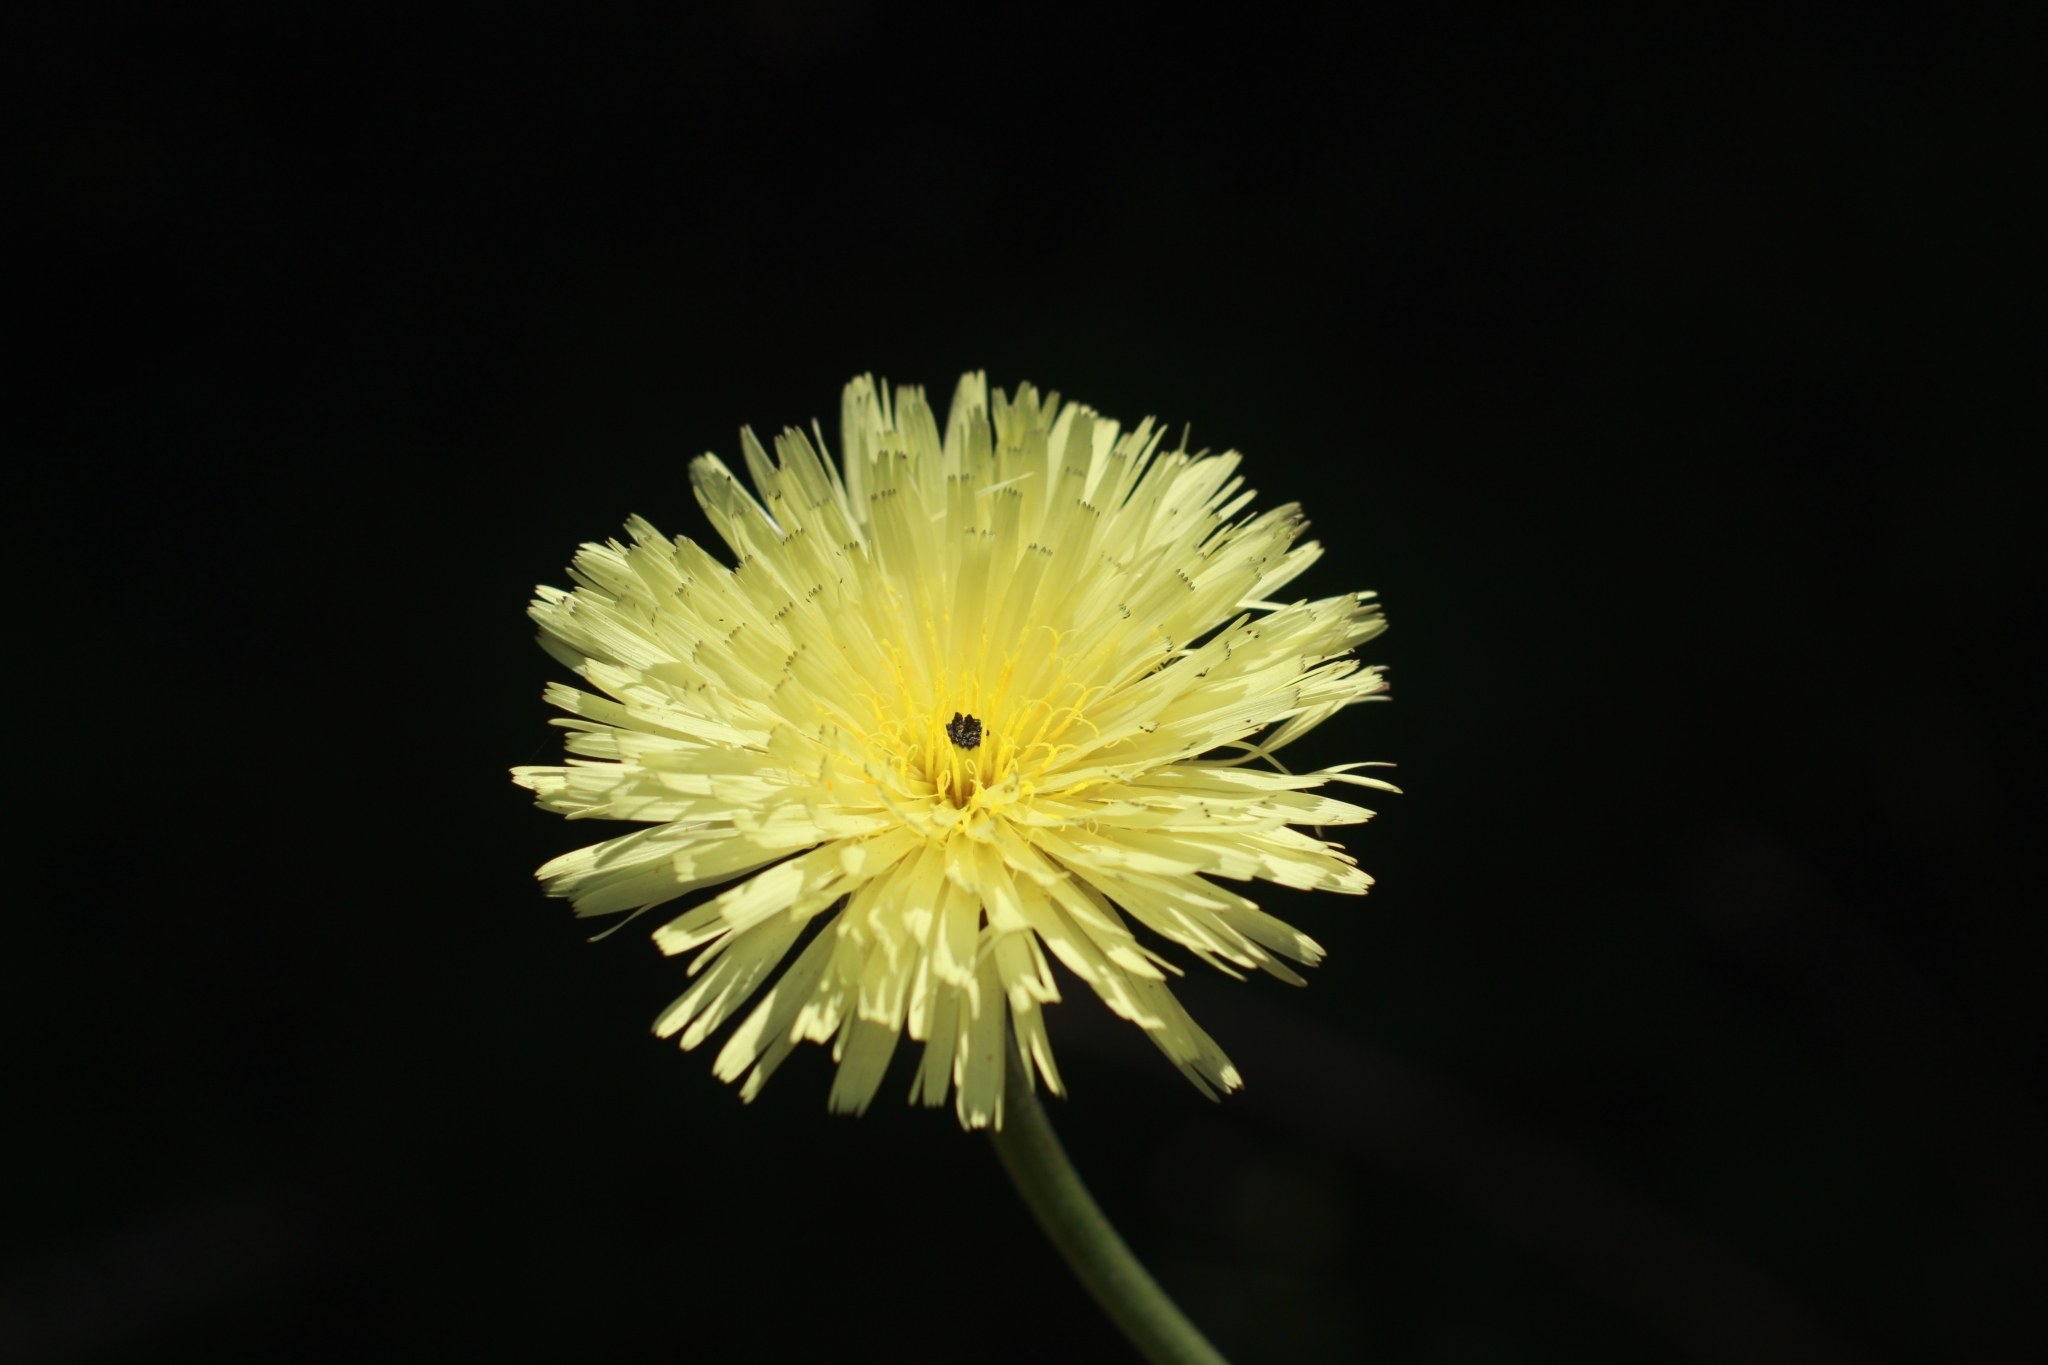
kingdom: Plantae
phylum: Tracheophyta
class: Magnoliopsida
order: Asterales
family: Asteraceae
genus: Urospermum
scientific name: Urospermum dalechampii
